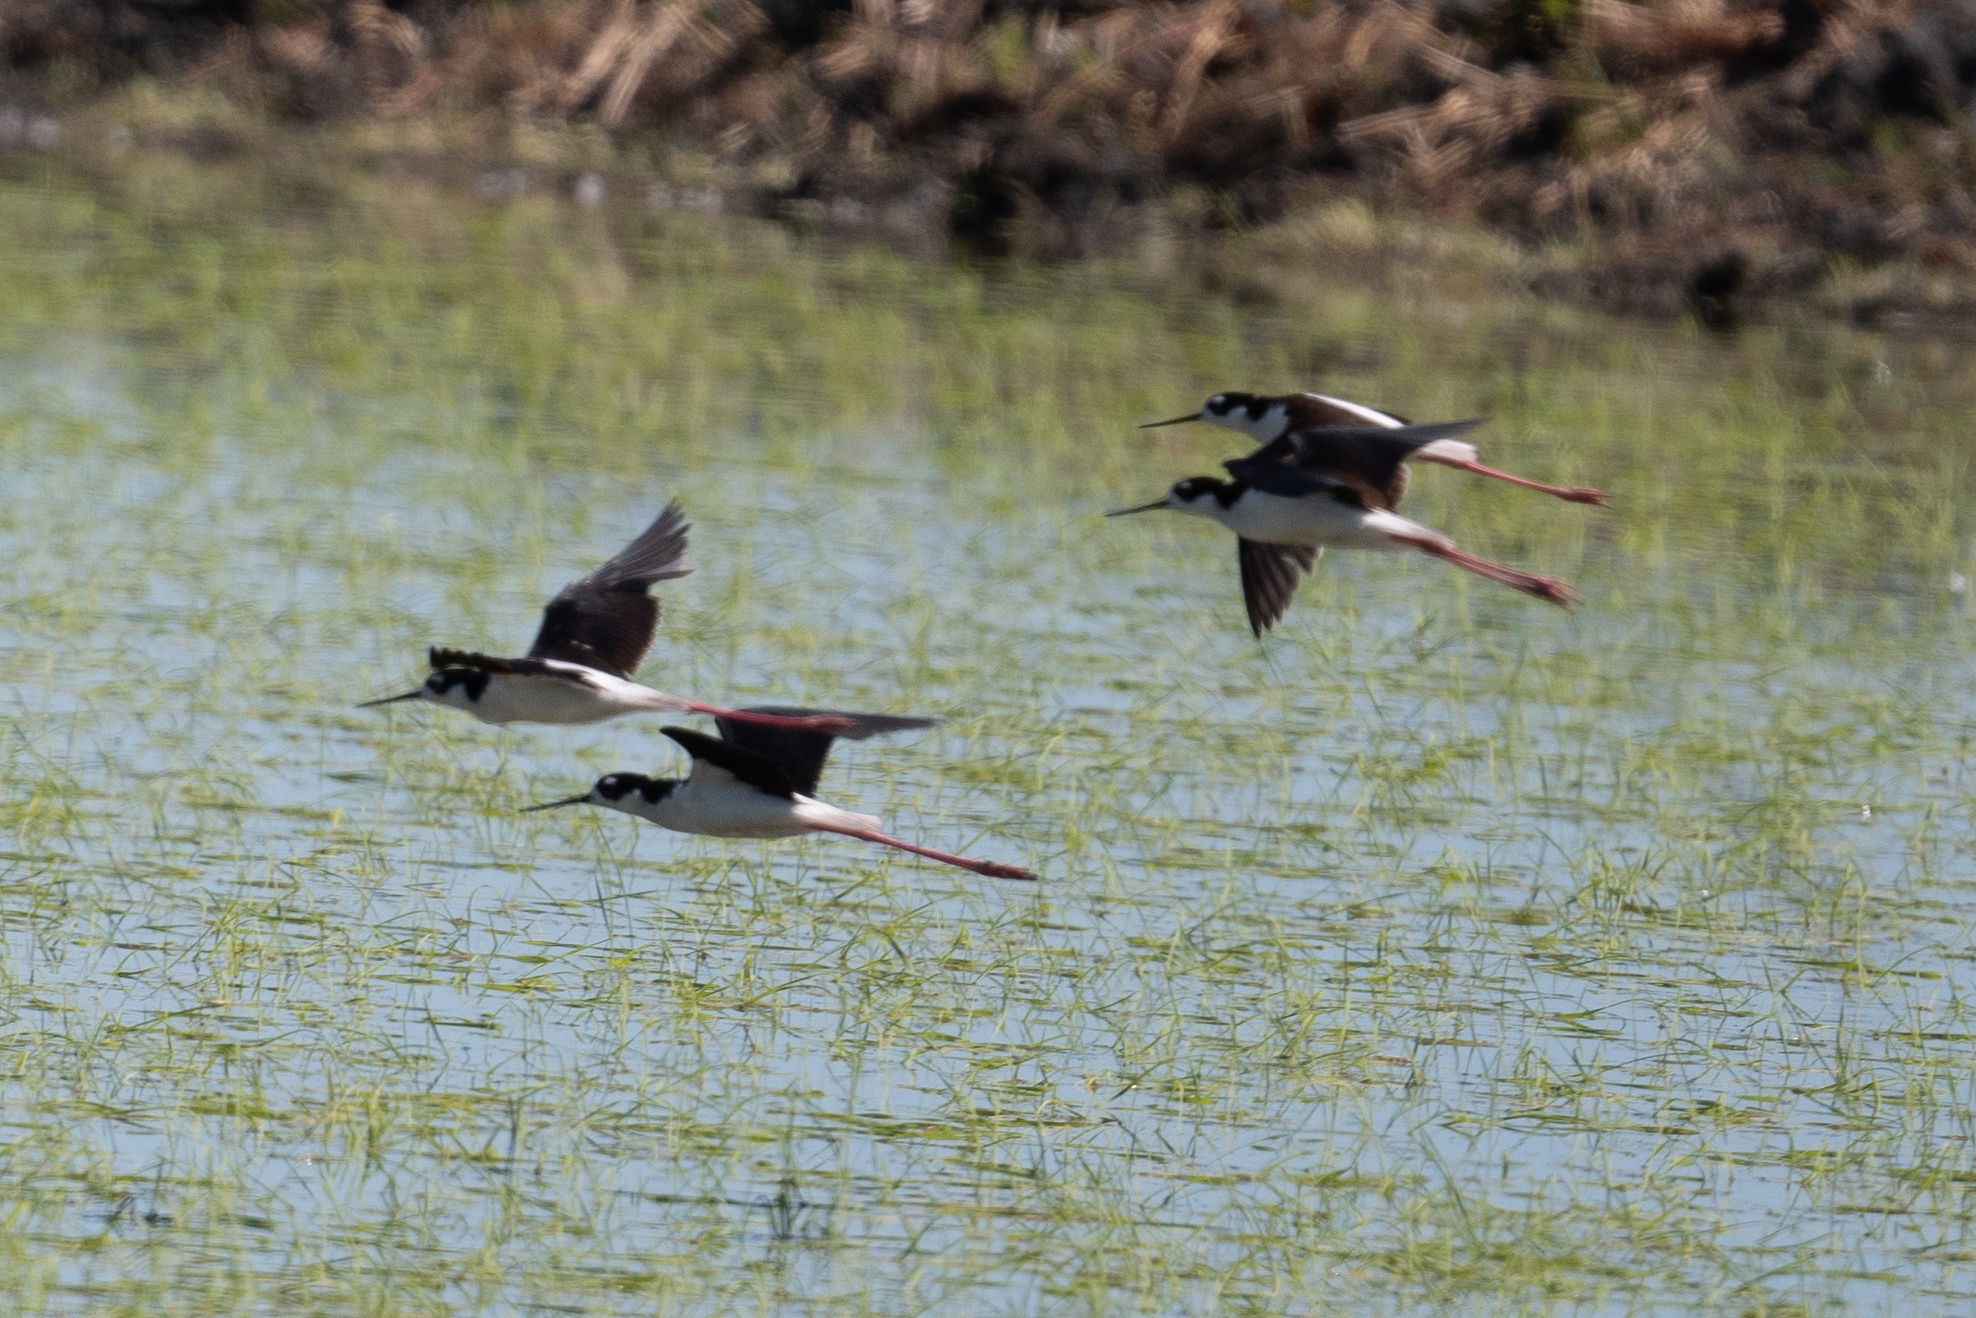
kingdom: Animalia
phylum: Chordata
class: Aves
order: Charadriiformes
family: Recurvirostridae
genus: Himantopus
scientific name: Himantopus mexicanus
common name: Black-necked stilt
